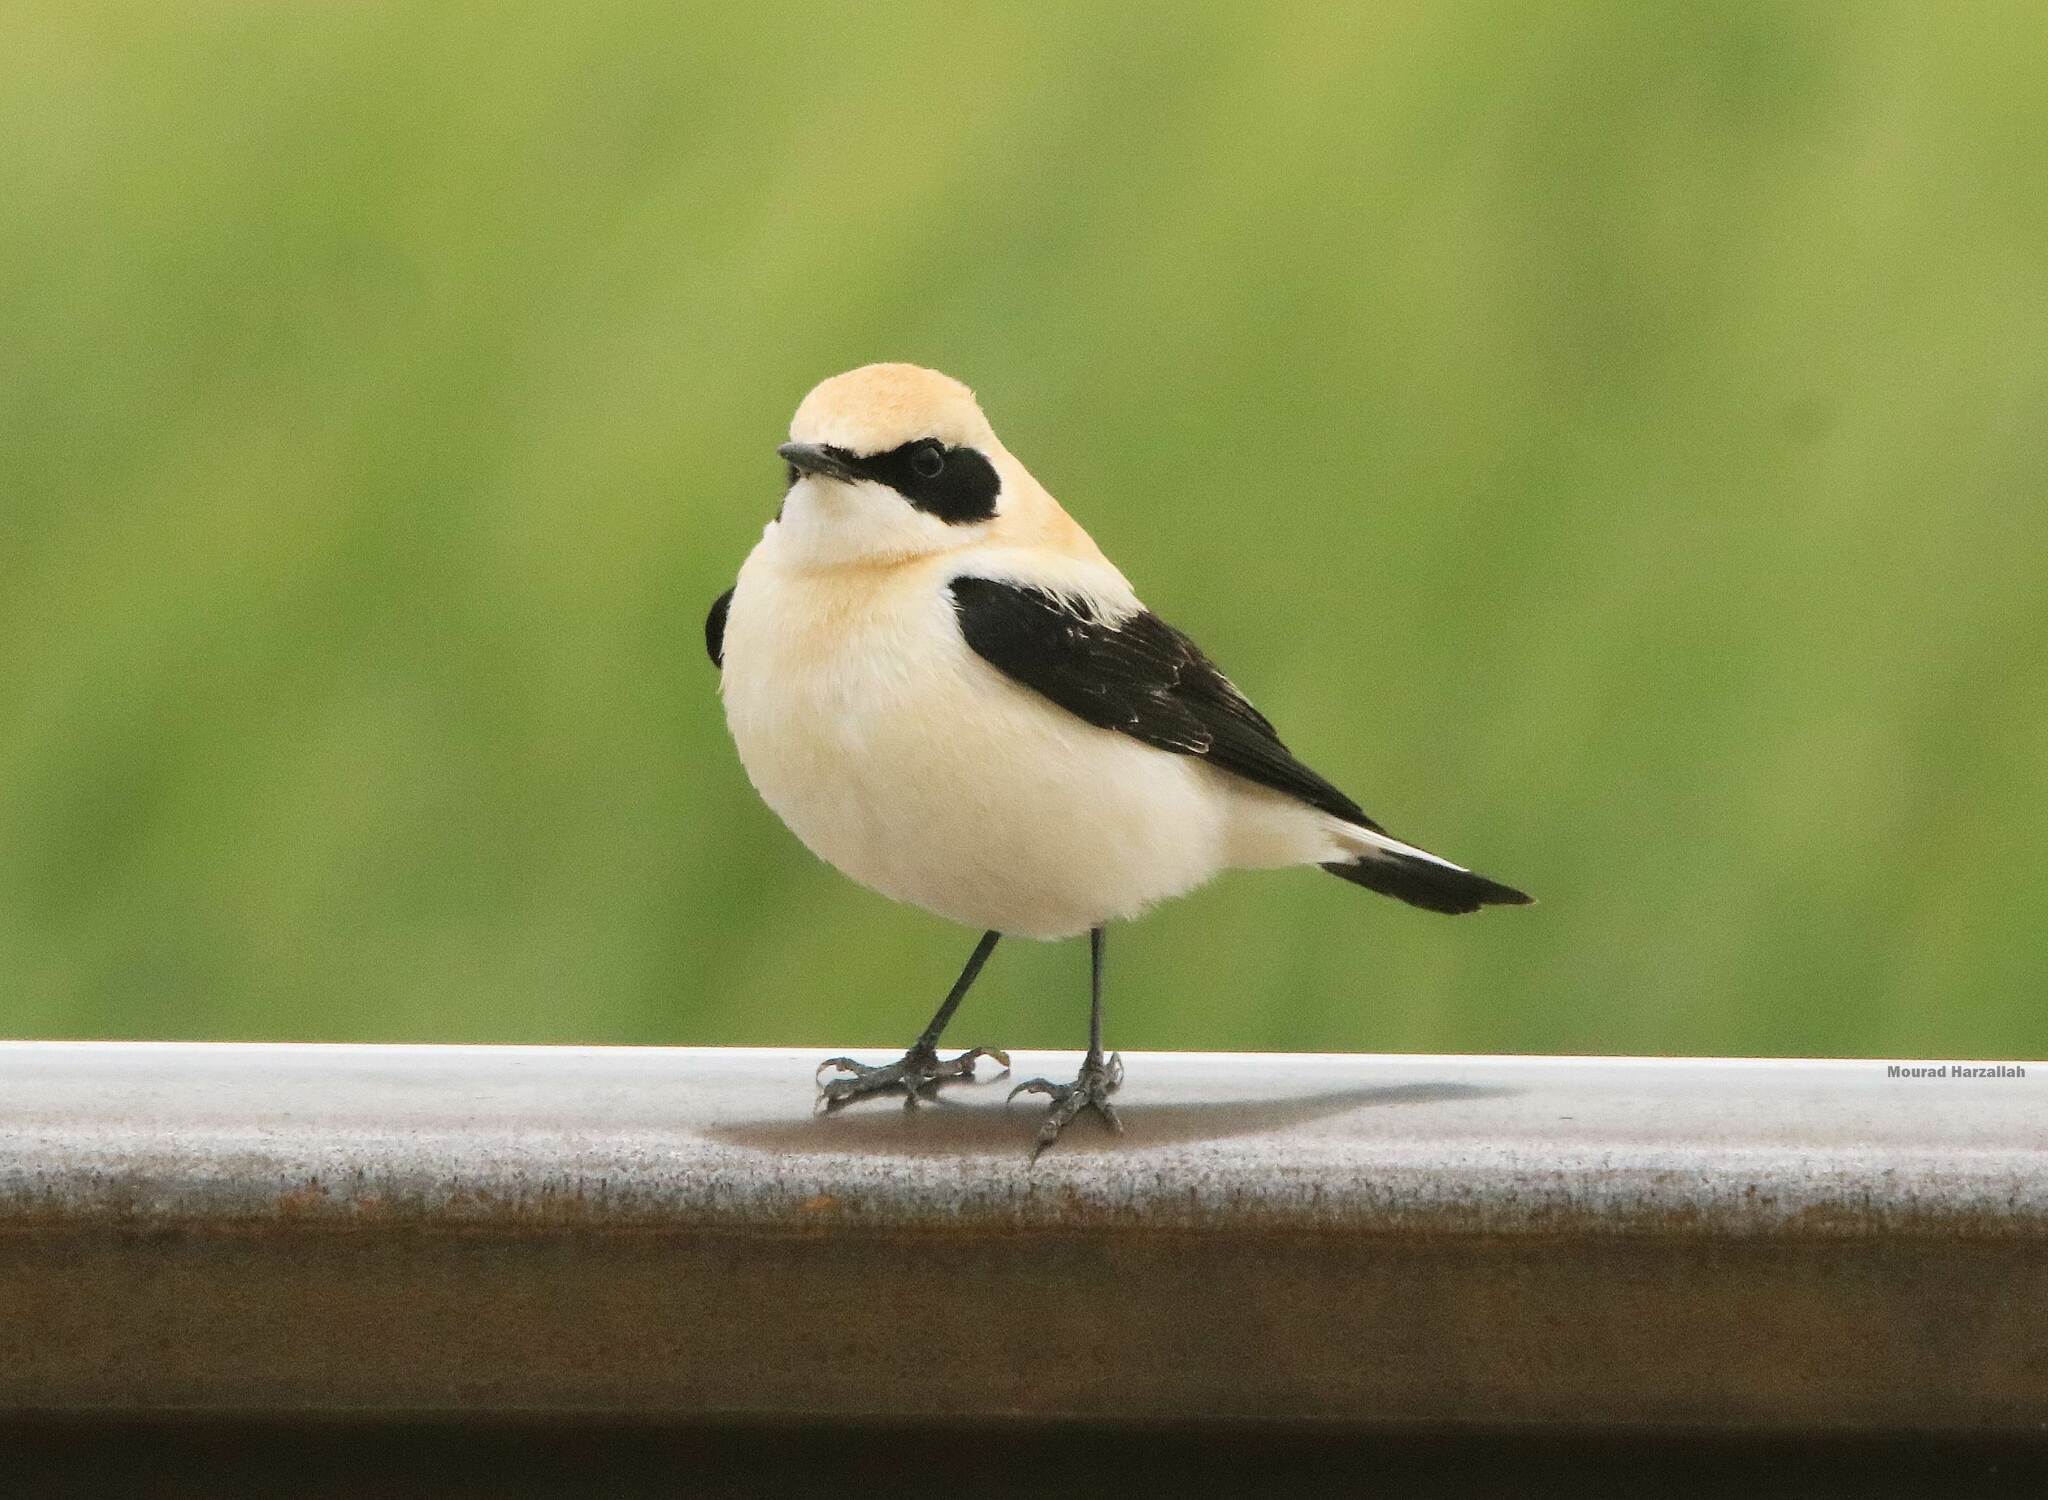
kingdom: Animalia
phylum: Chordata
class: Aves
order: Passeriformes
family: Muscicapidae
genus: Oenanthe
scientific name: Oenanthe hispanica
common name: Black-eared wheatear
